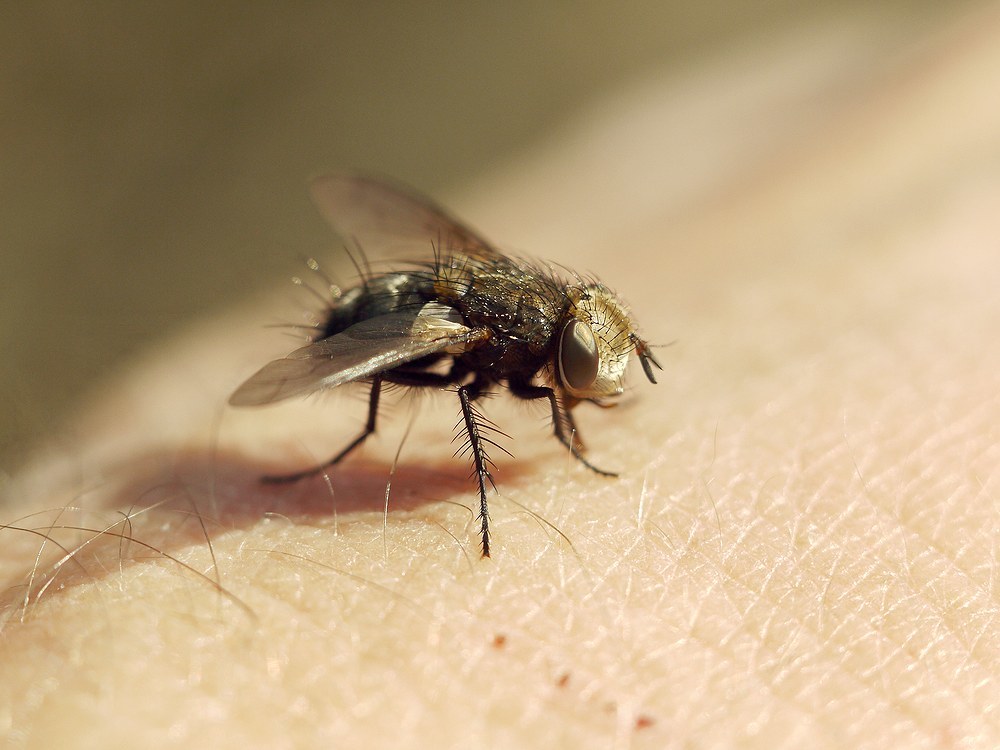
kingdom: Animalia
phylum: Arthropoda
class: Insecta
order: Diptera
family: Tachinidae
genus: Gonia
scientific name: Gonia picea
